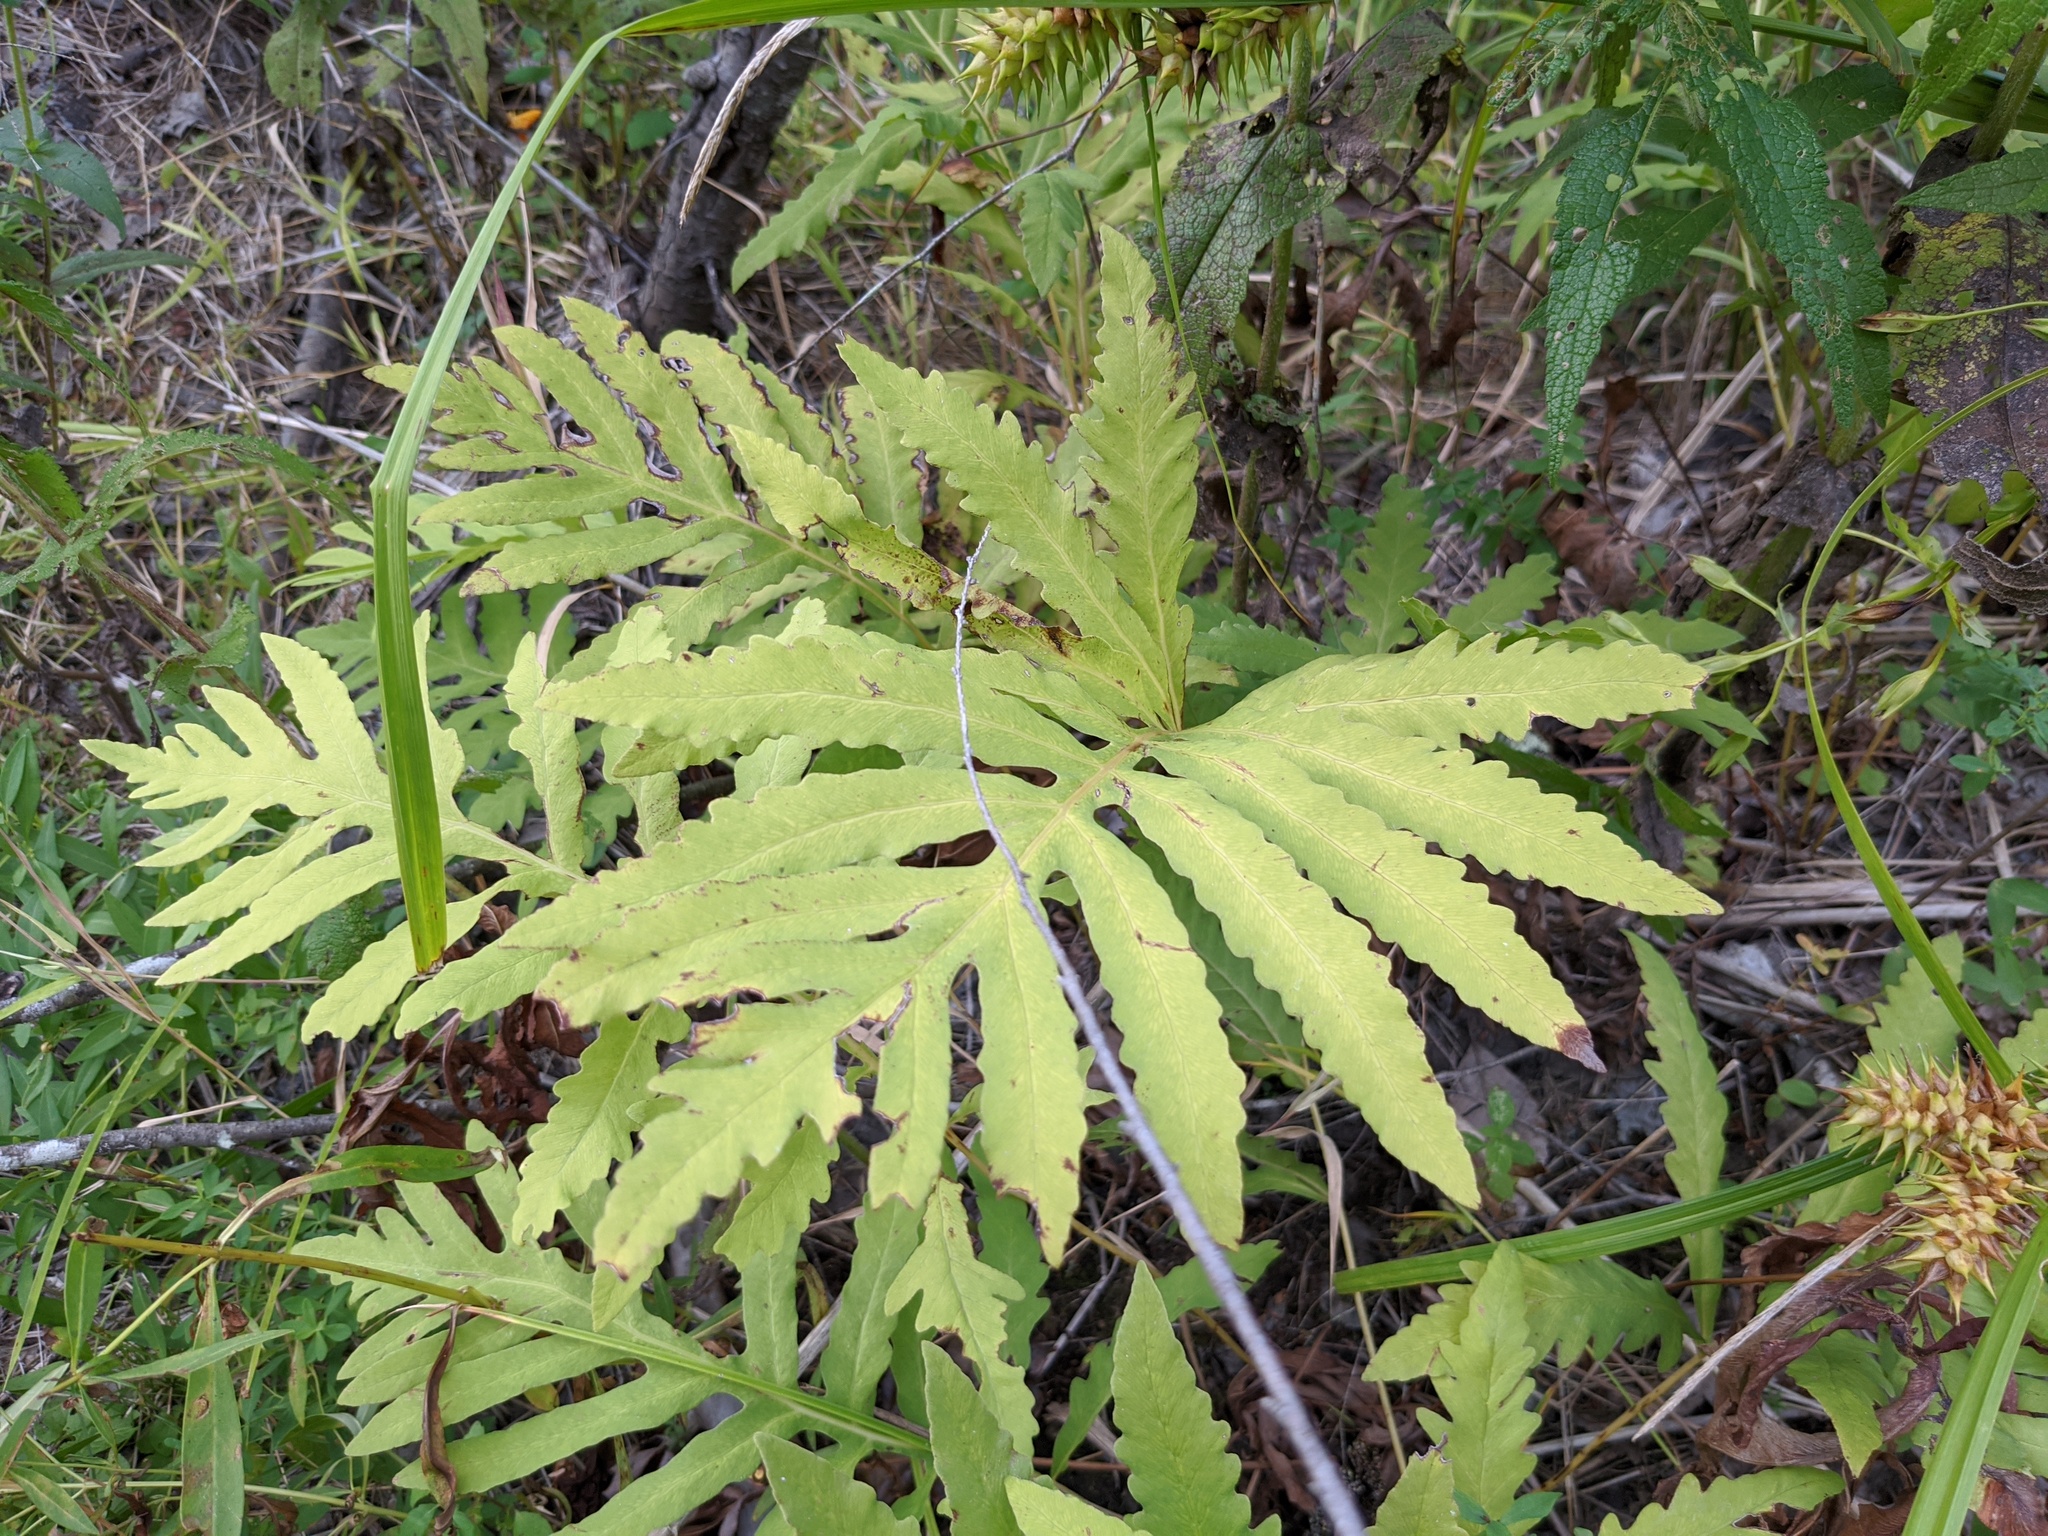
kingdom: Plantae
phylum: Tracheophyta
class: Polypodiopsida
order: Polypodiales
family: Onocleaceae
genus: Onoclea
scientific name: Onoclea sensibilis
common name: Sensitive fern
